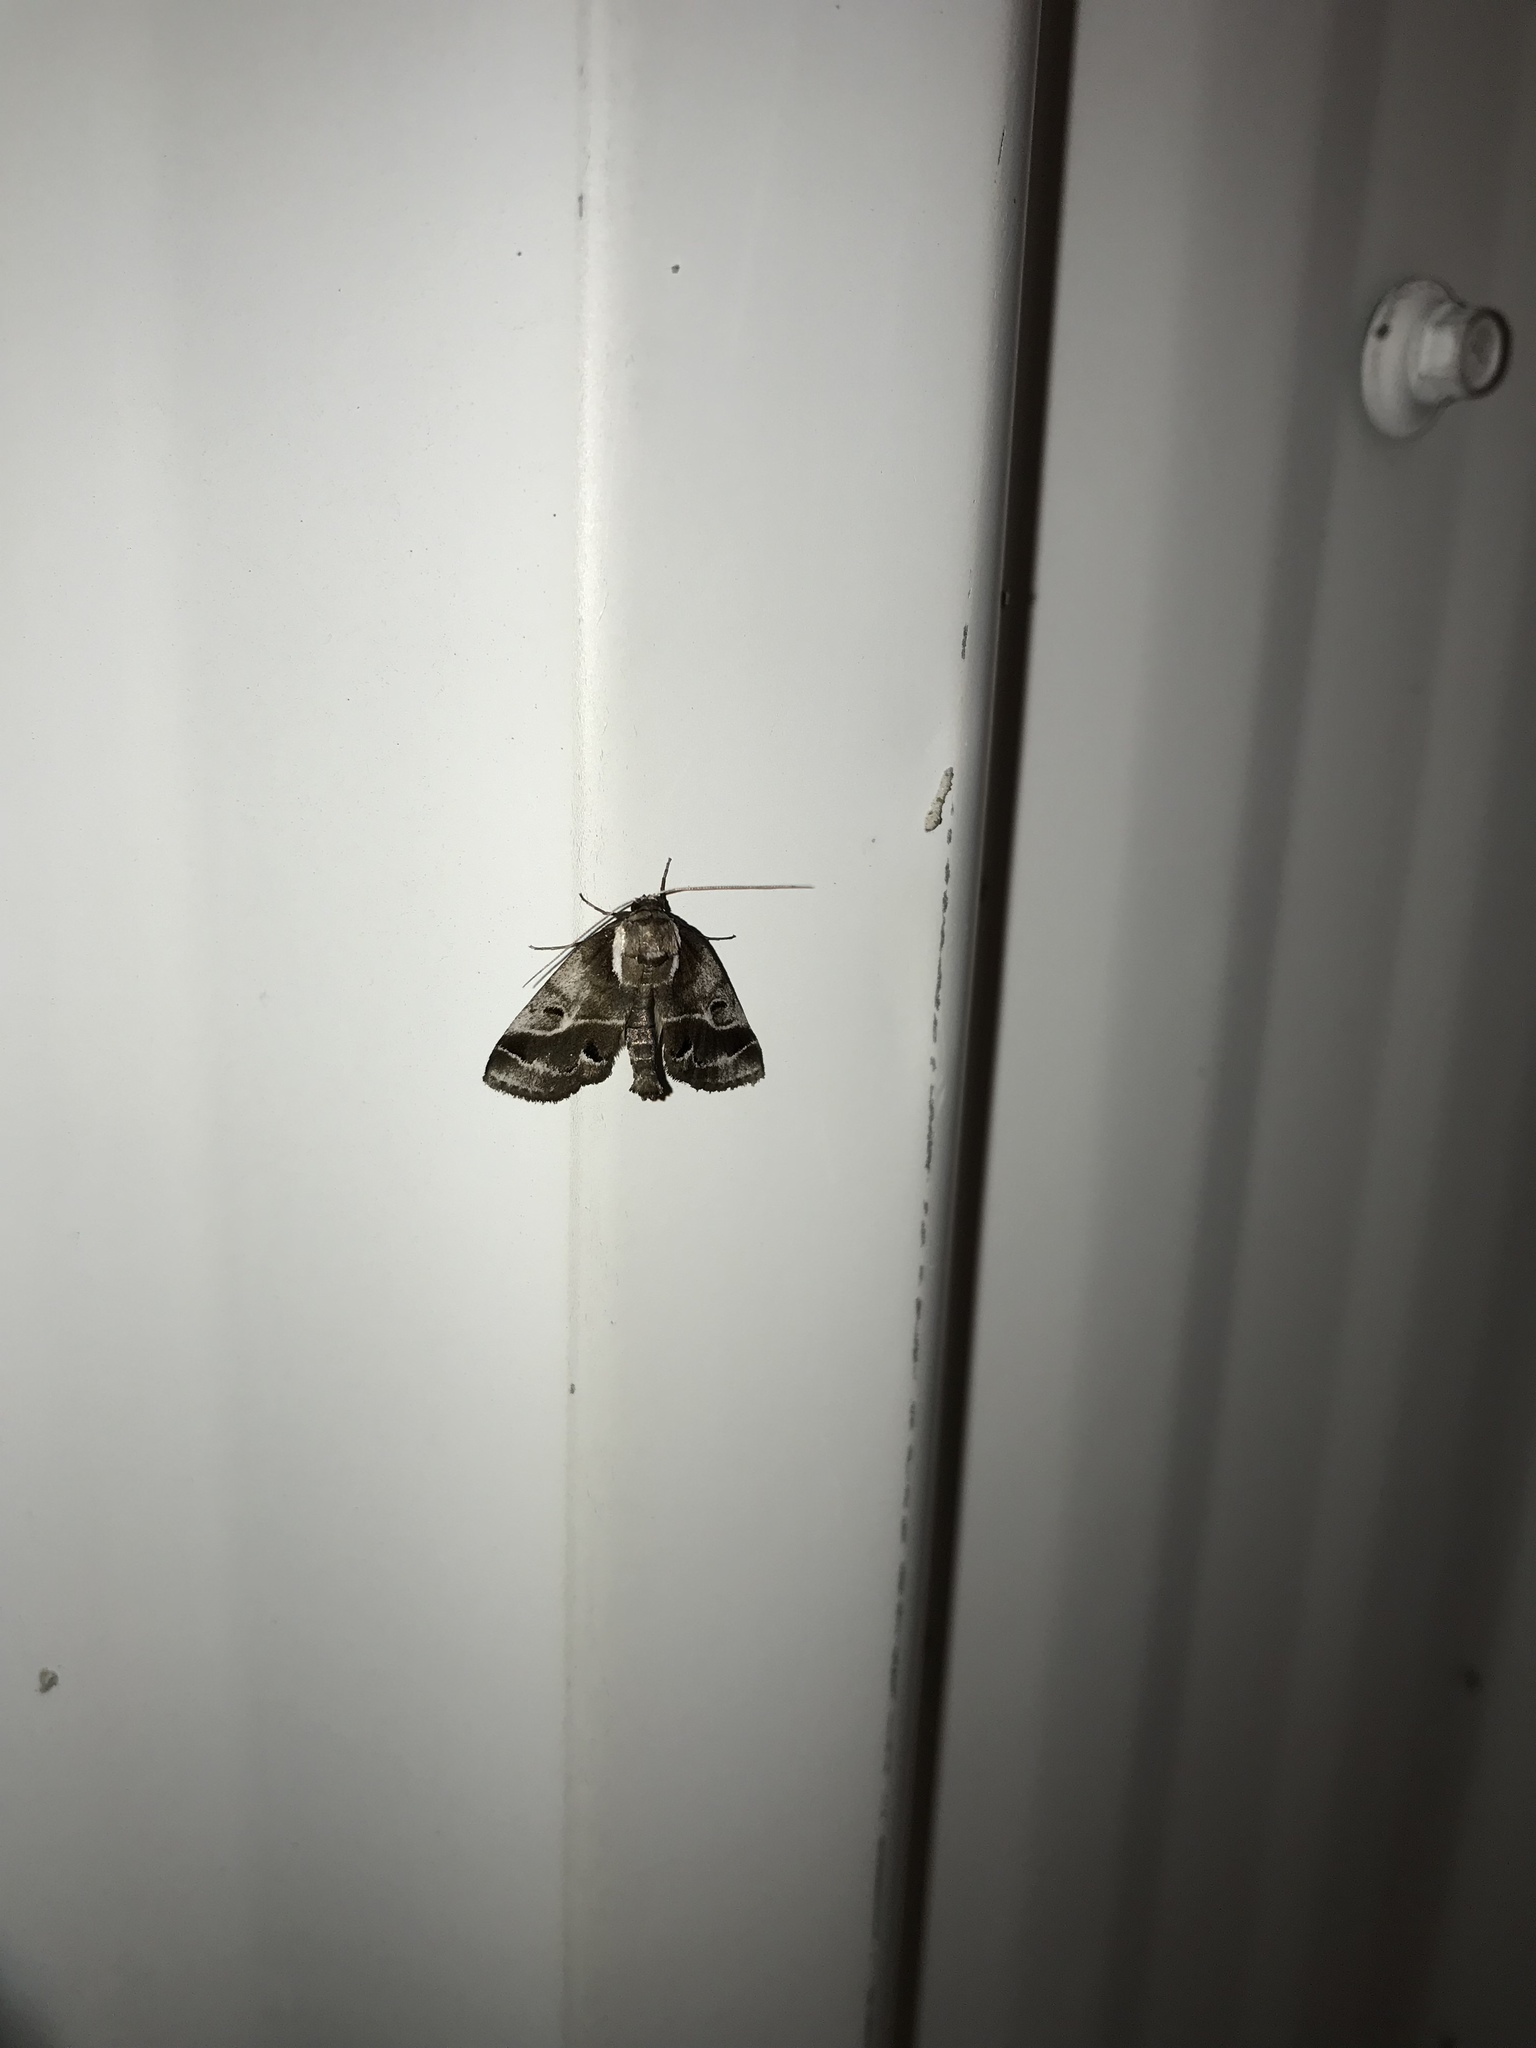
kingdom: Animalia
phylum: Arthropoda
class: Insecta
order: Lepidoptera
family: Nolidae
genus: Baileya
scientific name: Baileya doubledayi
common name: Doubleday's baileya moth
